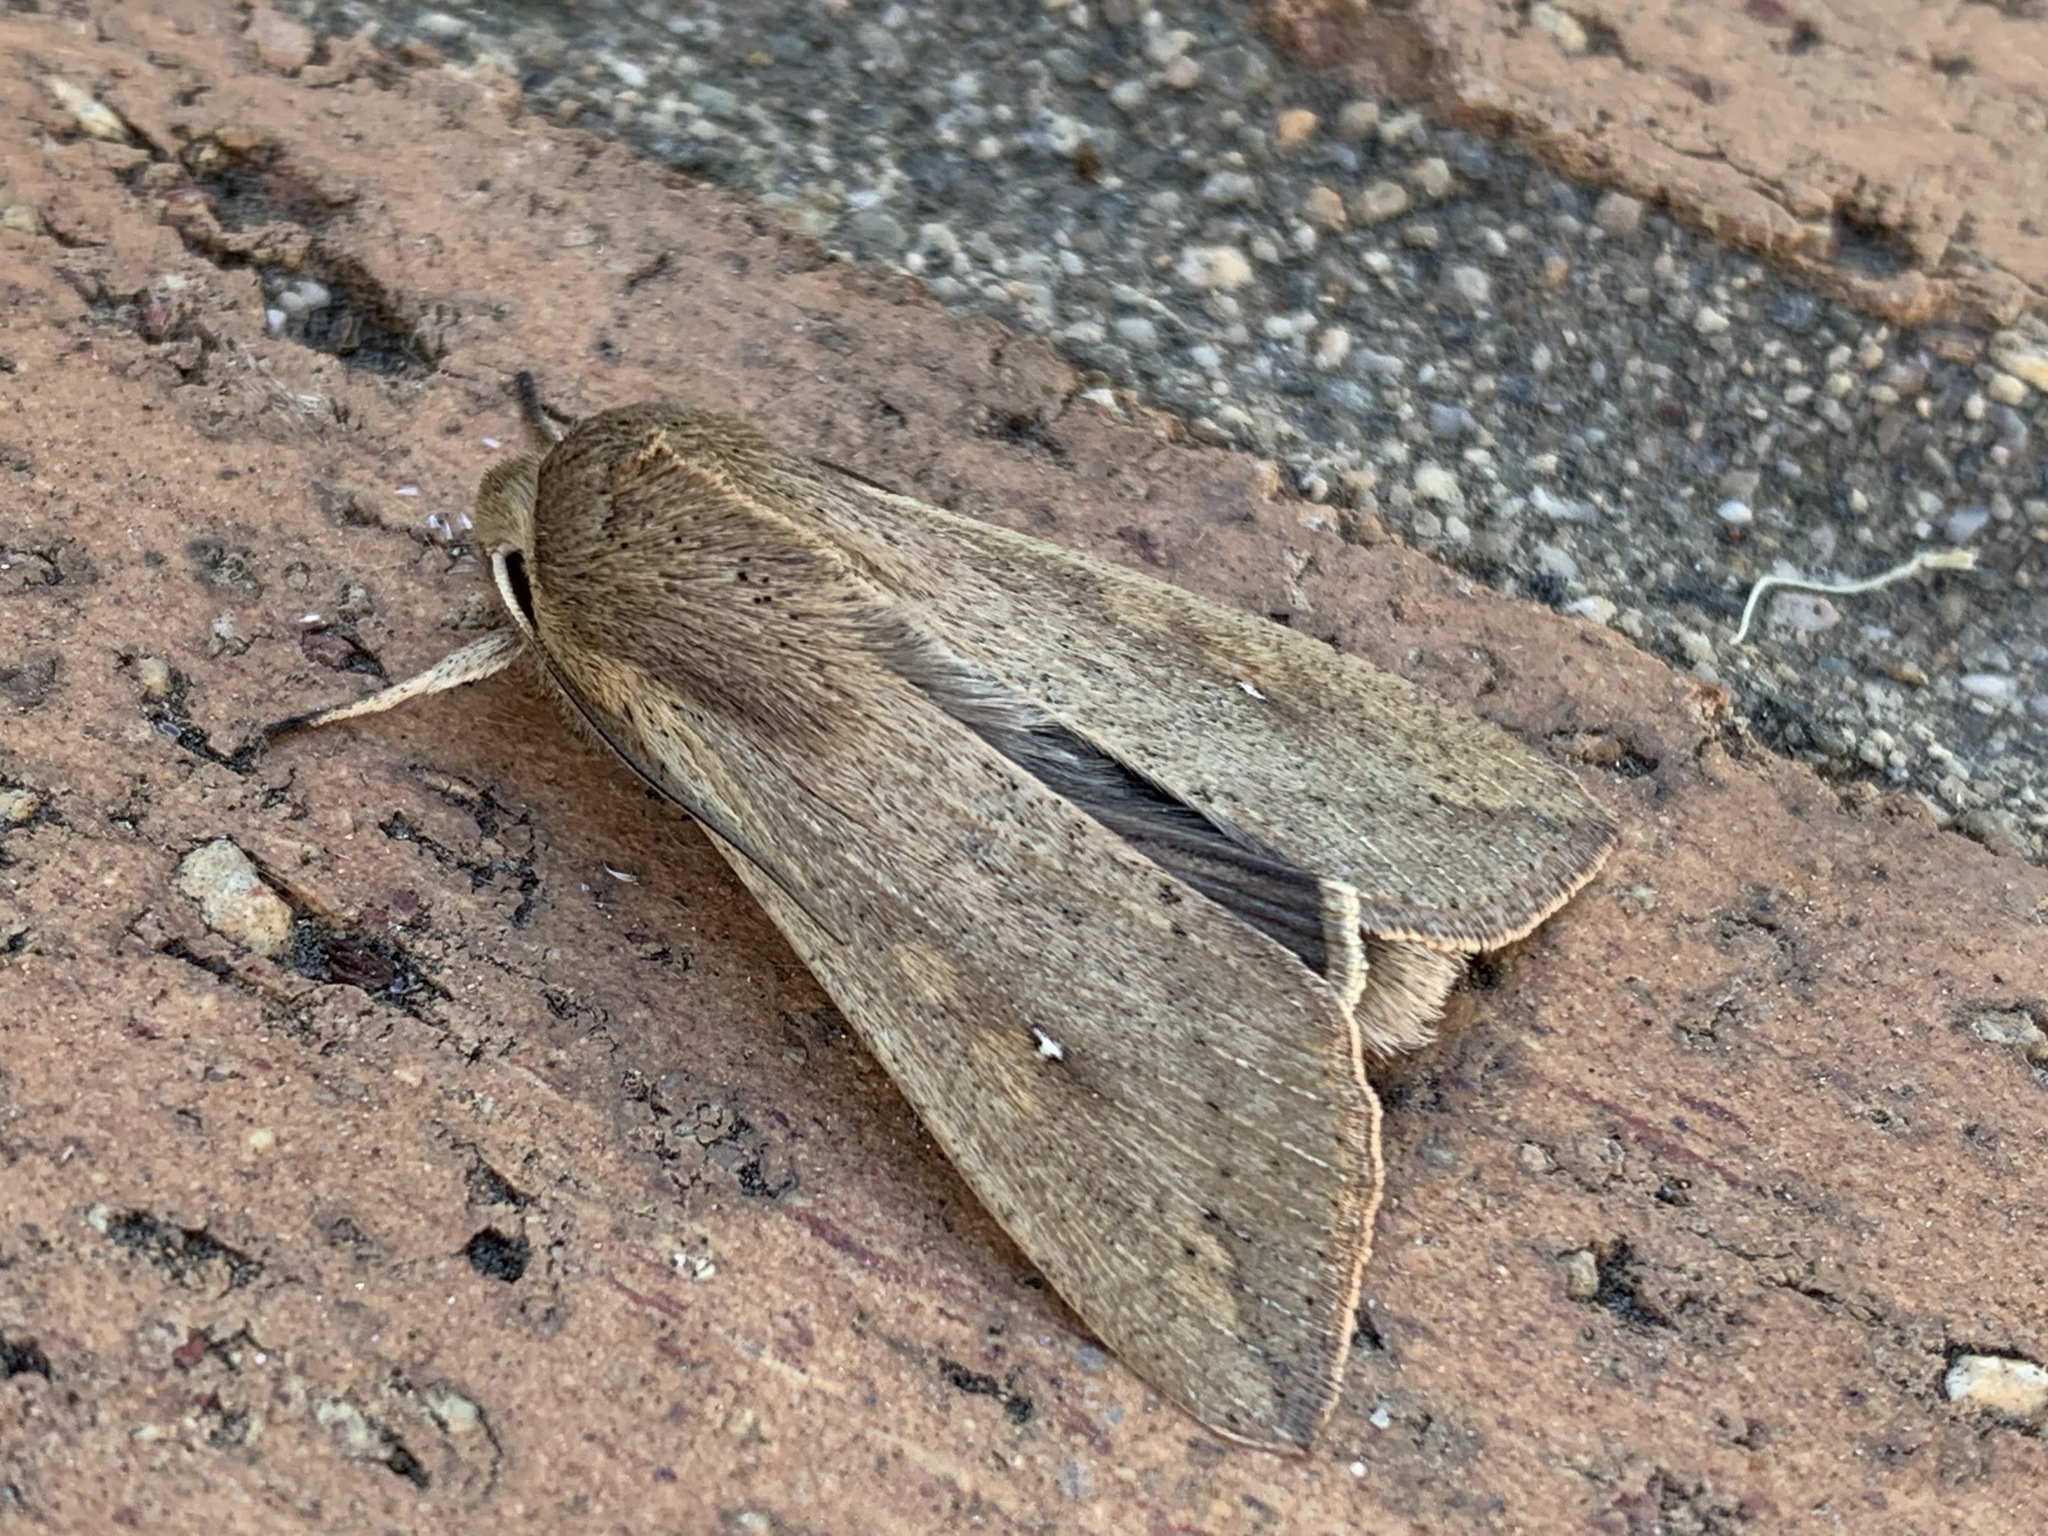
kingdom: Animalia
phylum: Arthropoda
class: Insecta
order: Lepidoptera
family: Noctuidae
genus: Mythimna
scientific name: Mythimna unipuncta
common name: White-speck
